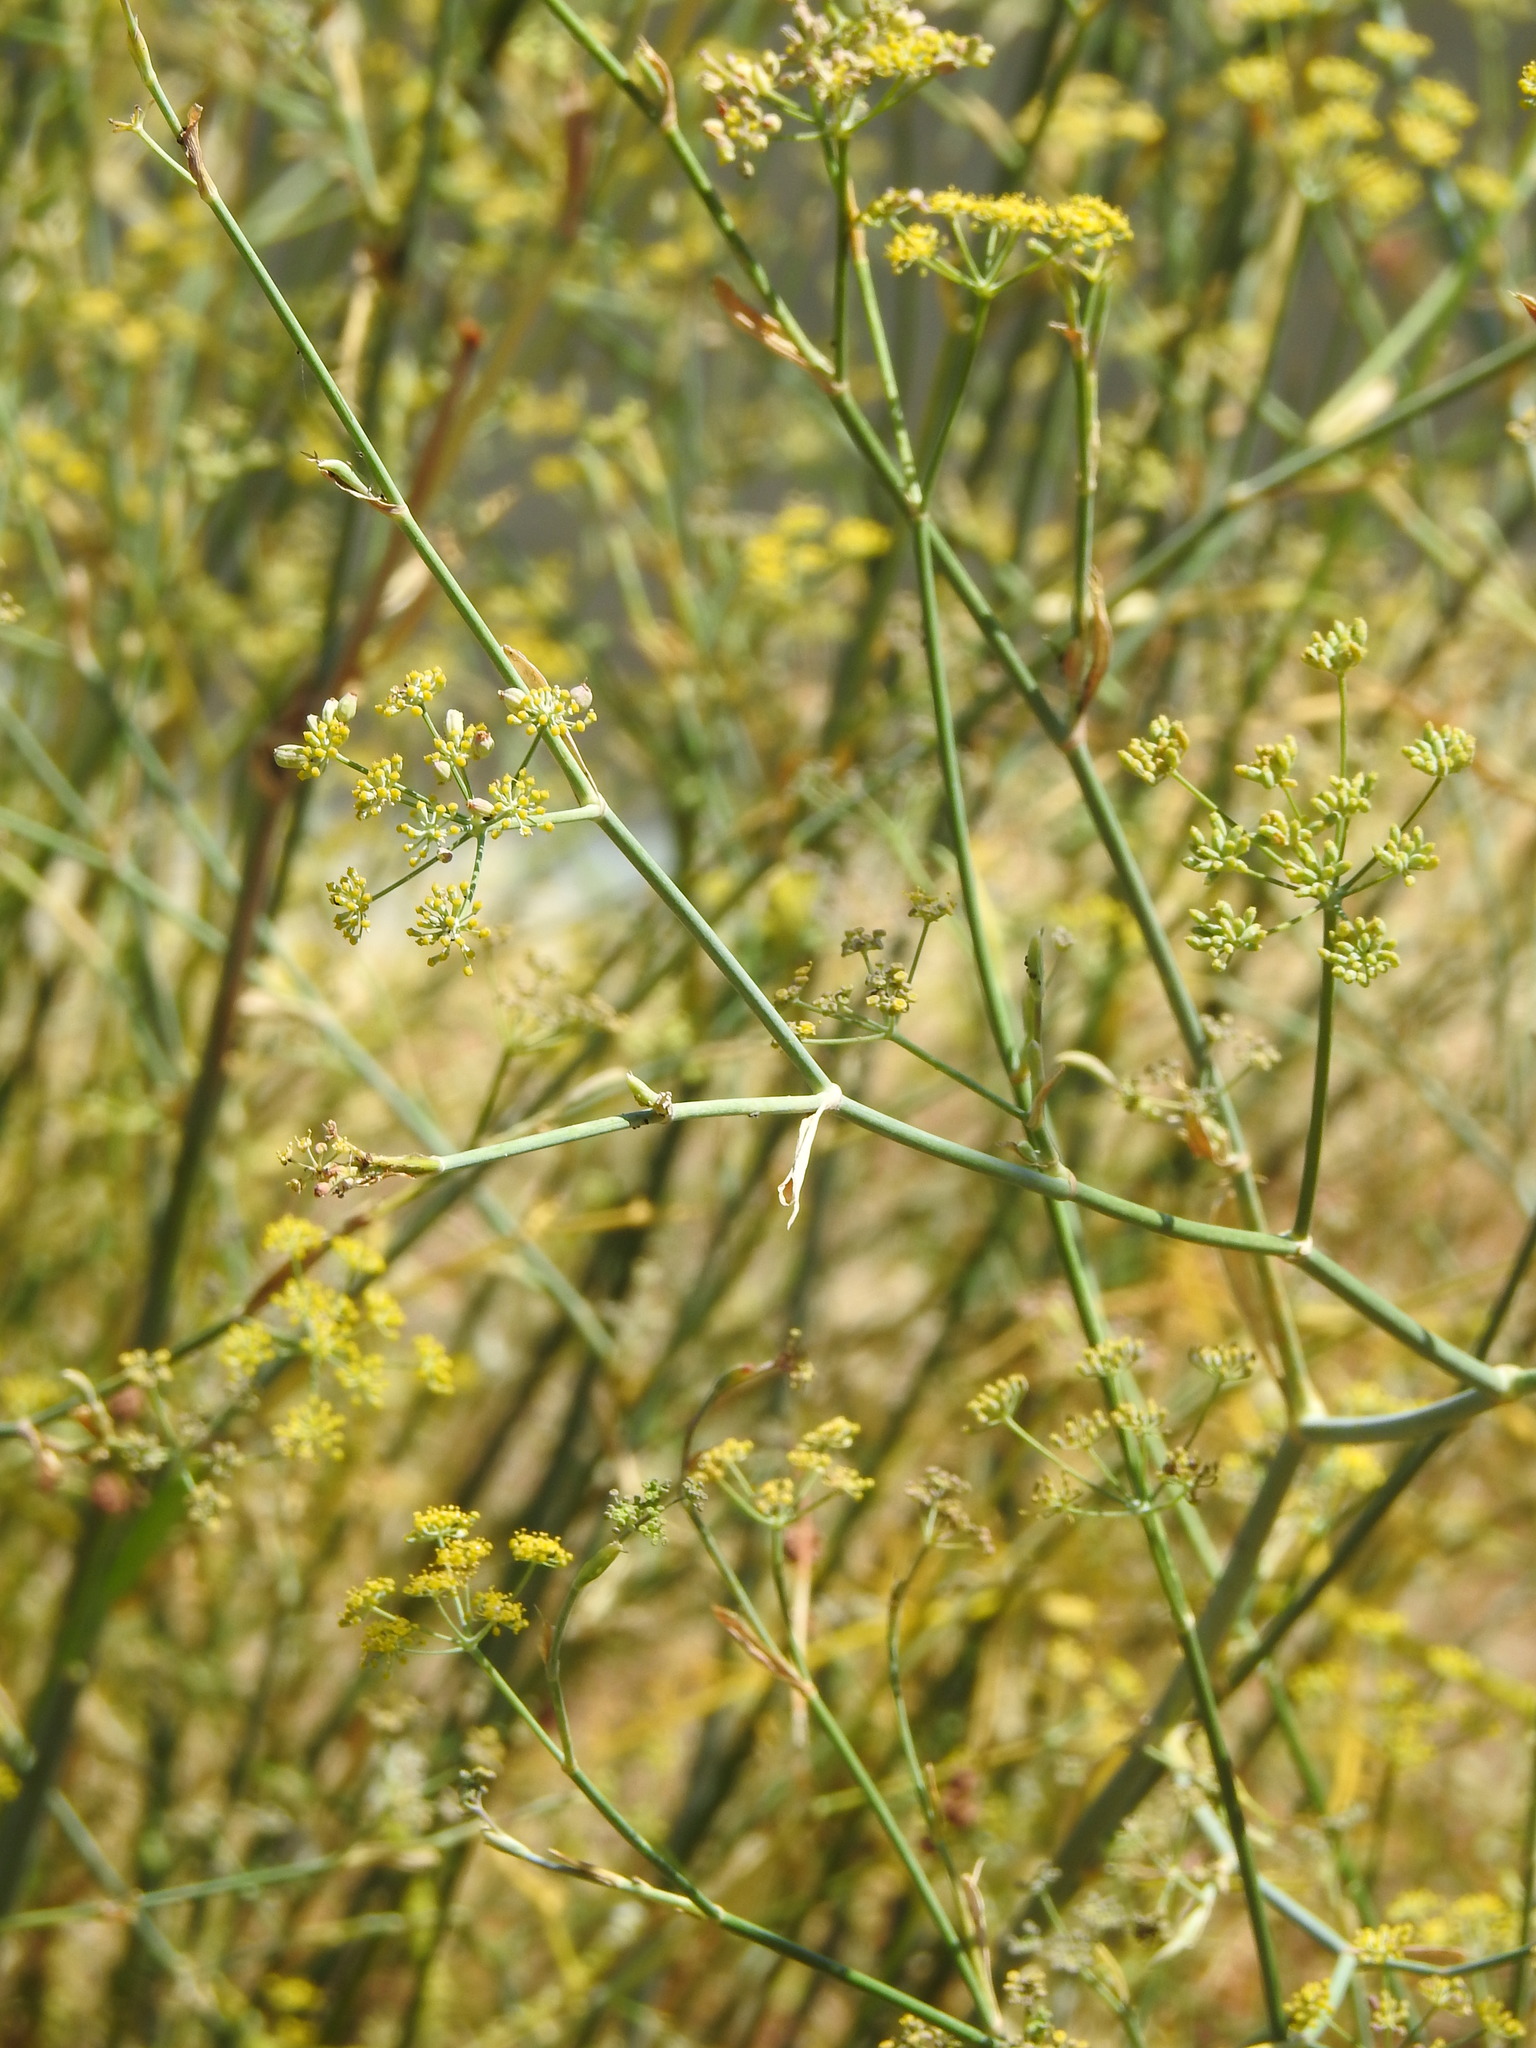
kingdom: Plantae
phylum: Tracheophyta
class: Magnoliopsida
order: Apiales
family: Apiaceae
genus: Foeniculum
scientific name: Foeniculum vulgare
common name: Fennel
